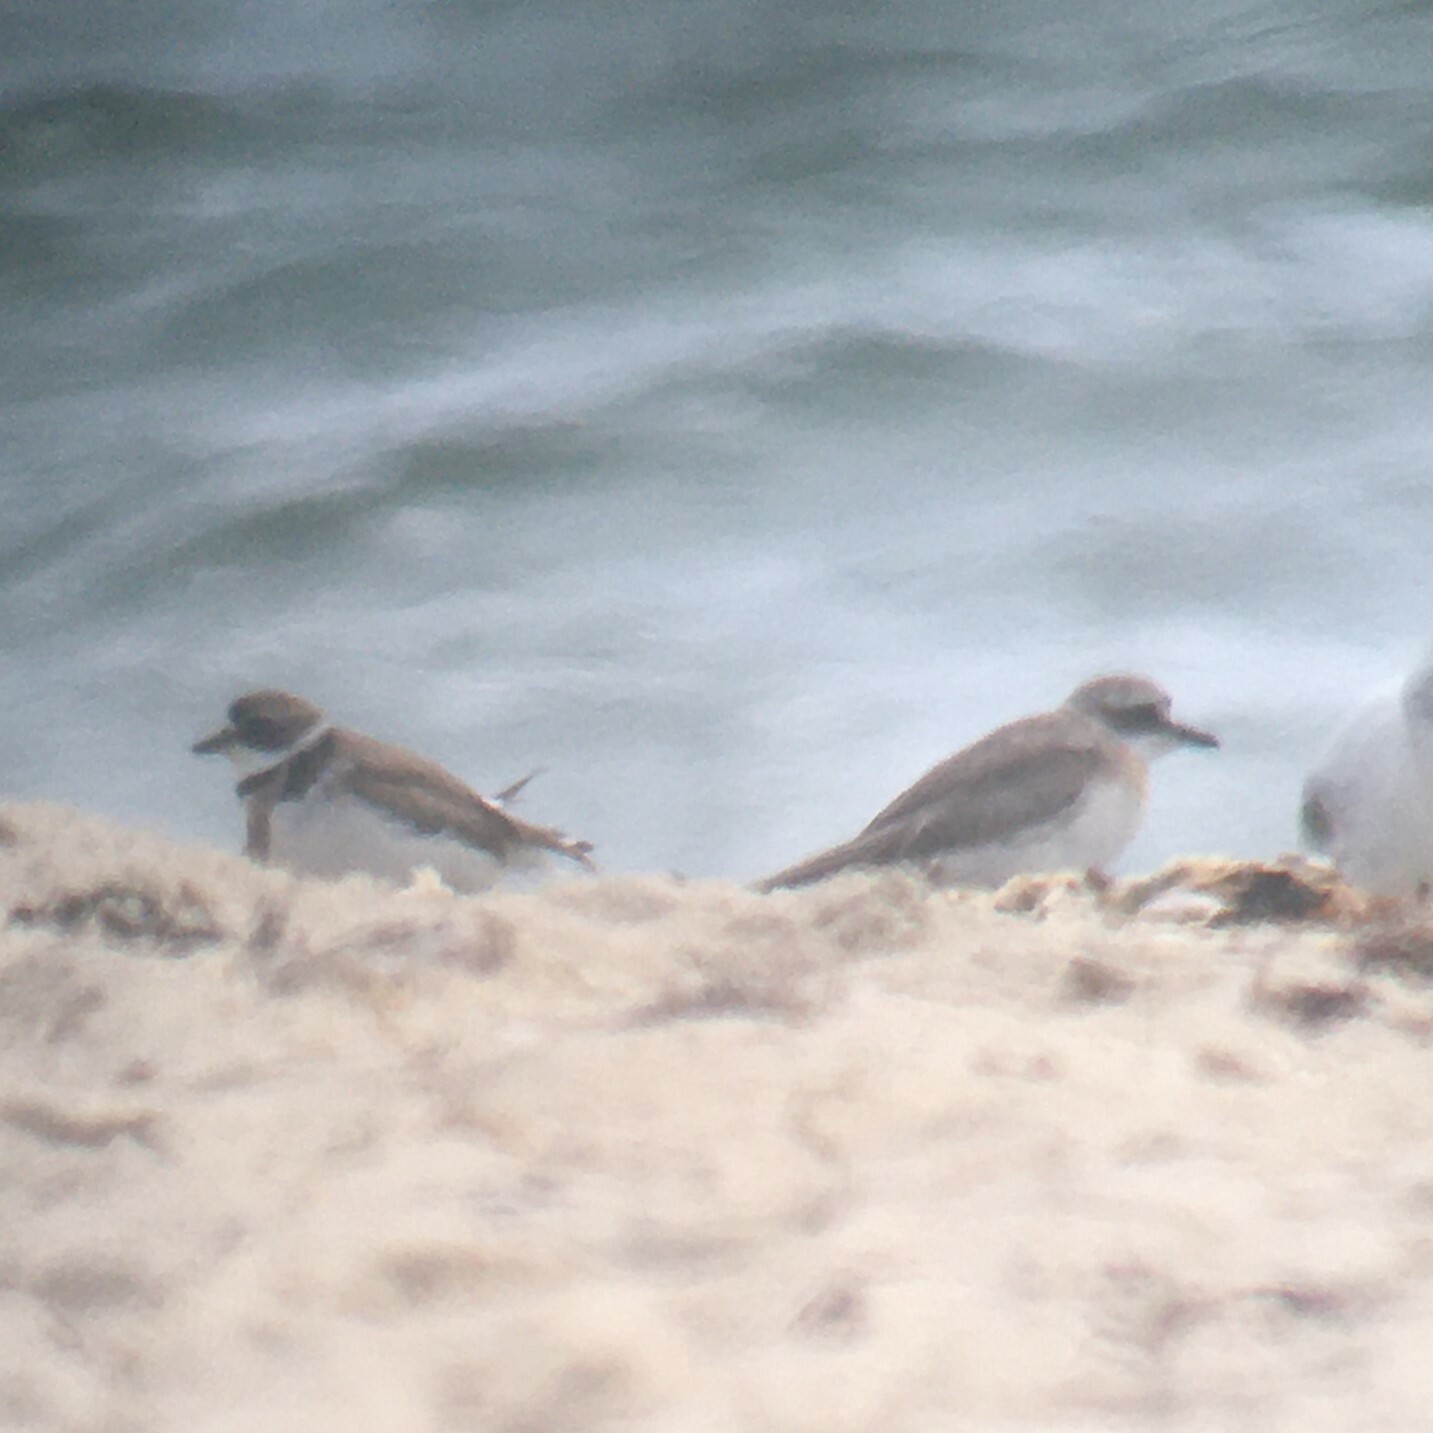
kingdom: Animalia
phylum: Chordata
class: Aves
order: Charadriiformes
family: Charadriidae
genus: Charadrius
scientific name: Charadrius semipalmatus
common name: Semipalmated plover
